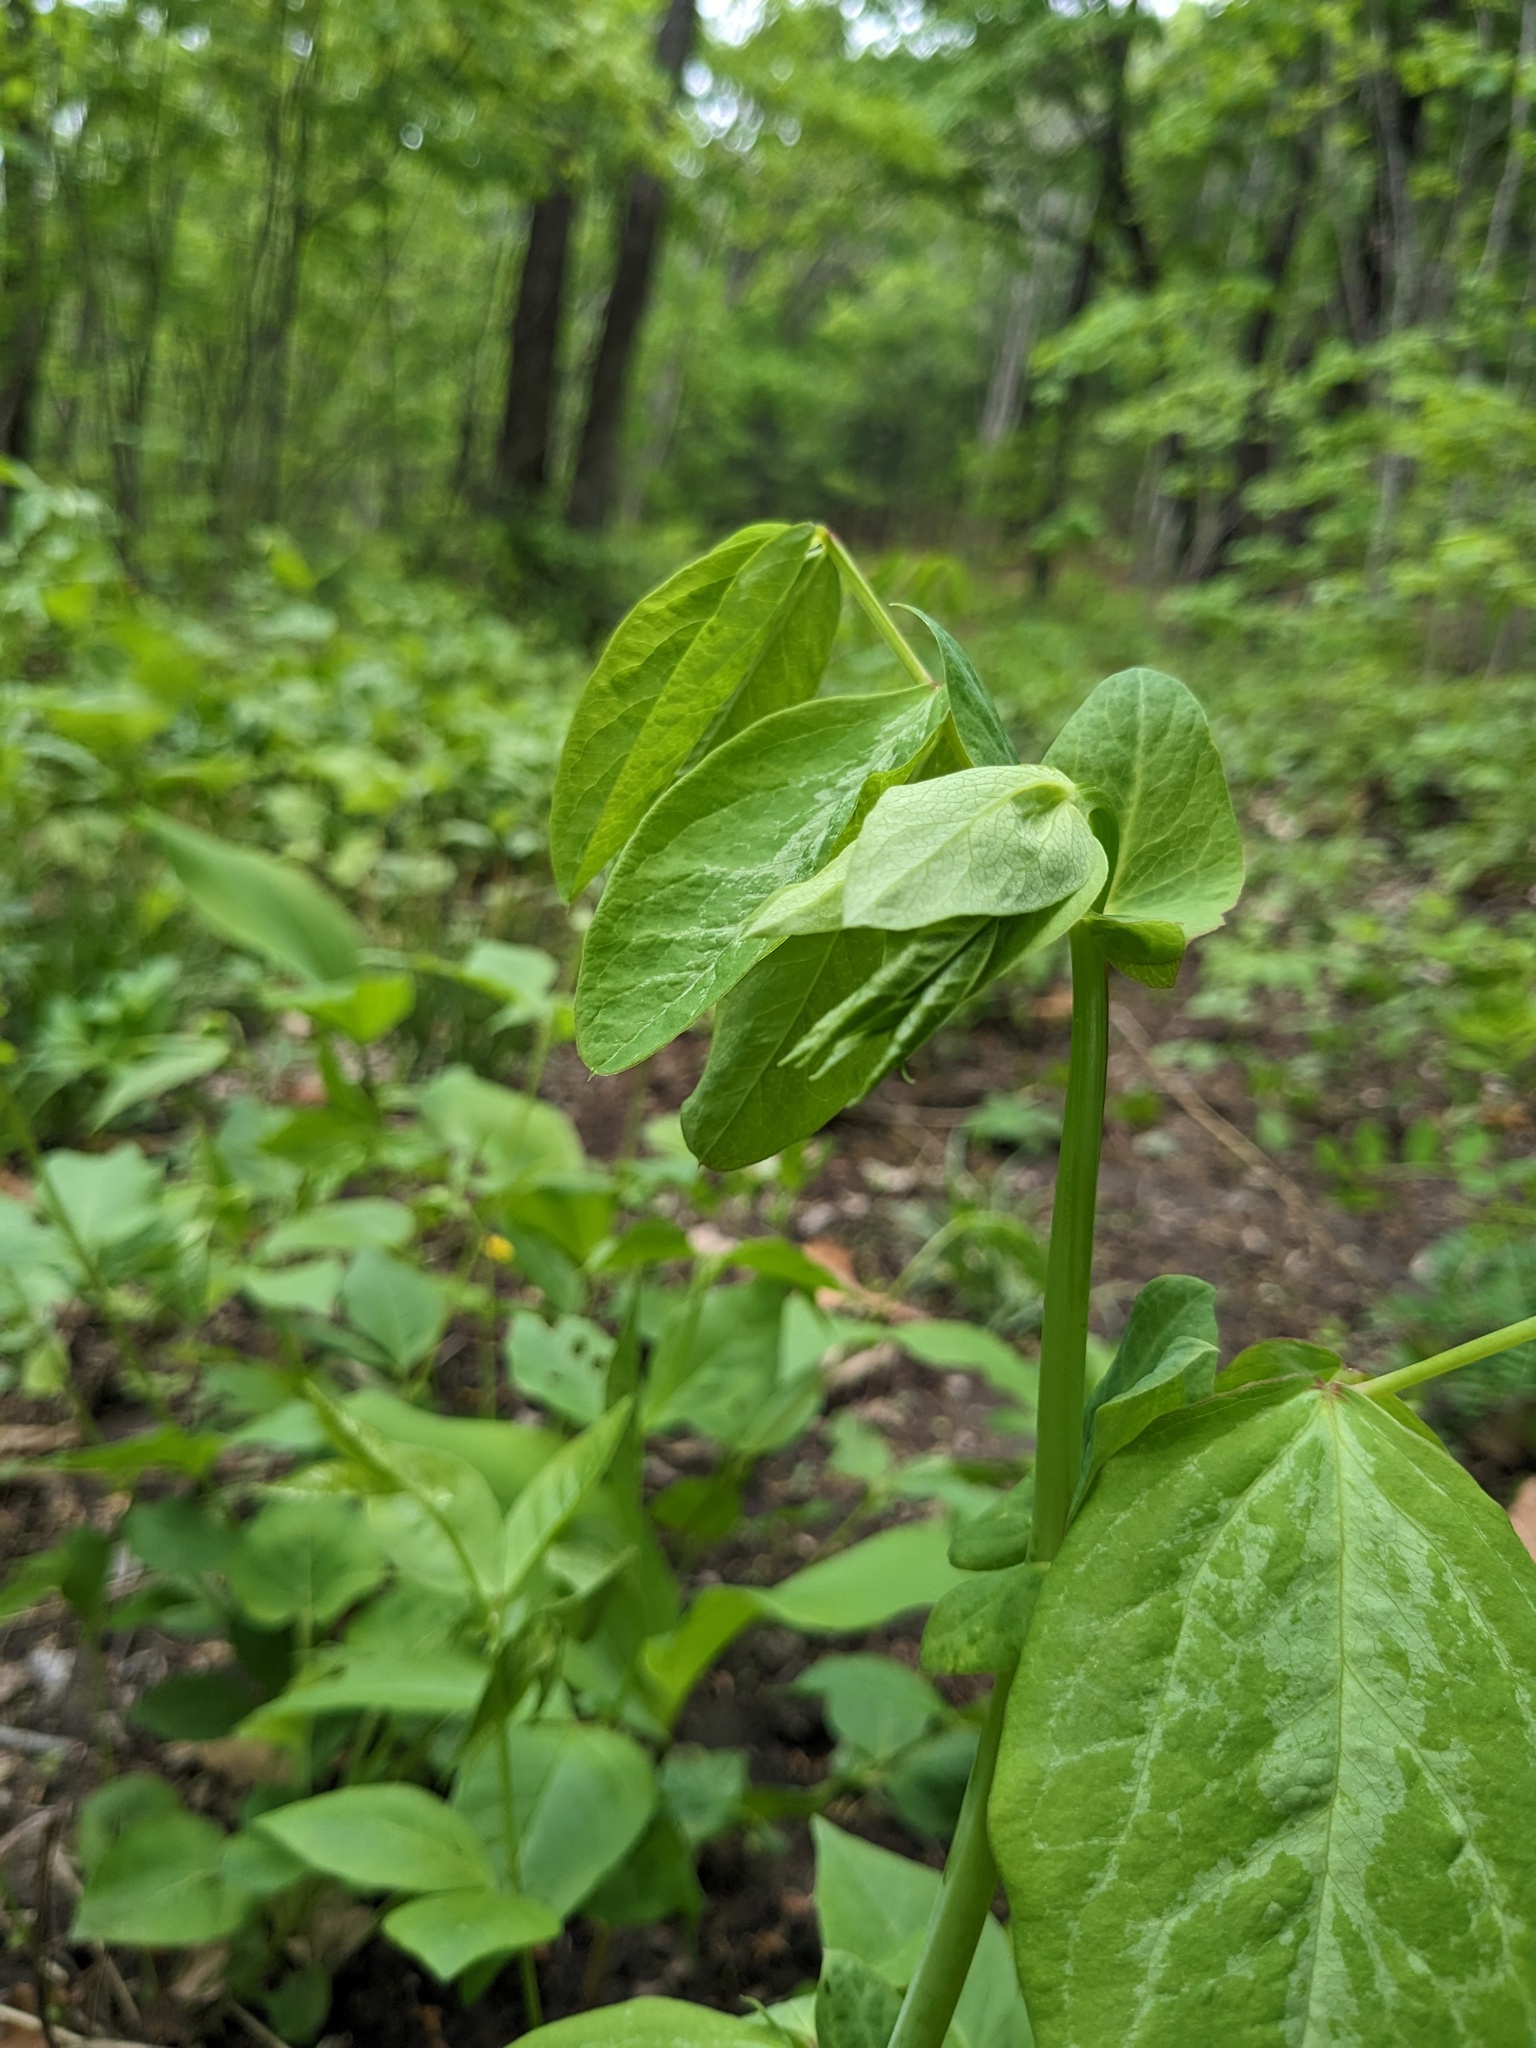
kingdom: Plantae
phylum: Tracheophyta
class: Magnoliopsida
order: Fabales
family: Fabaceae
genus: Lathyrus
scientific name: Lathyrus davidii
